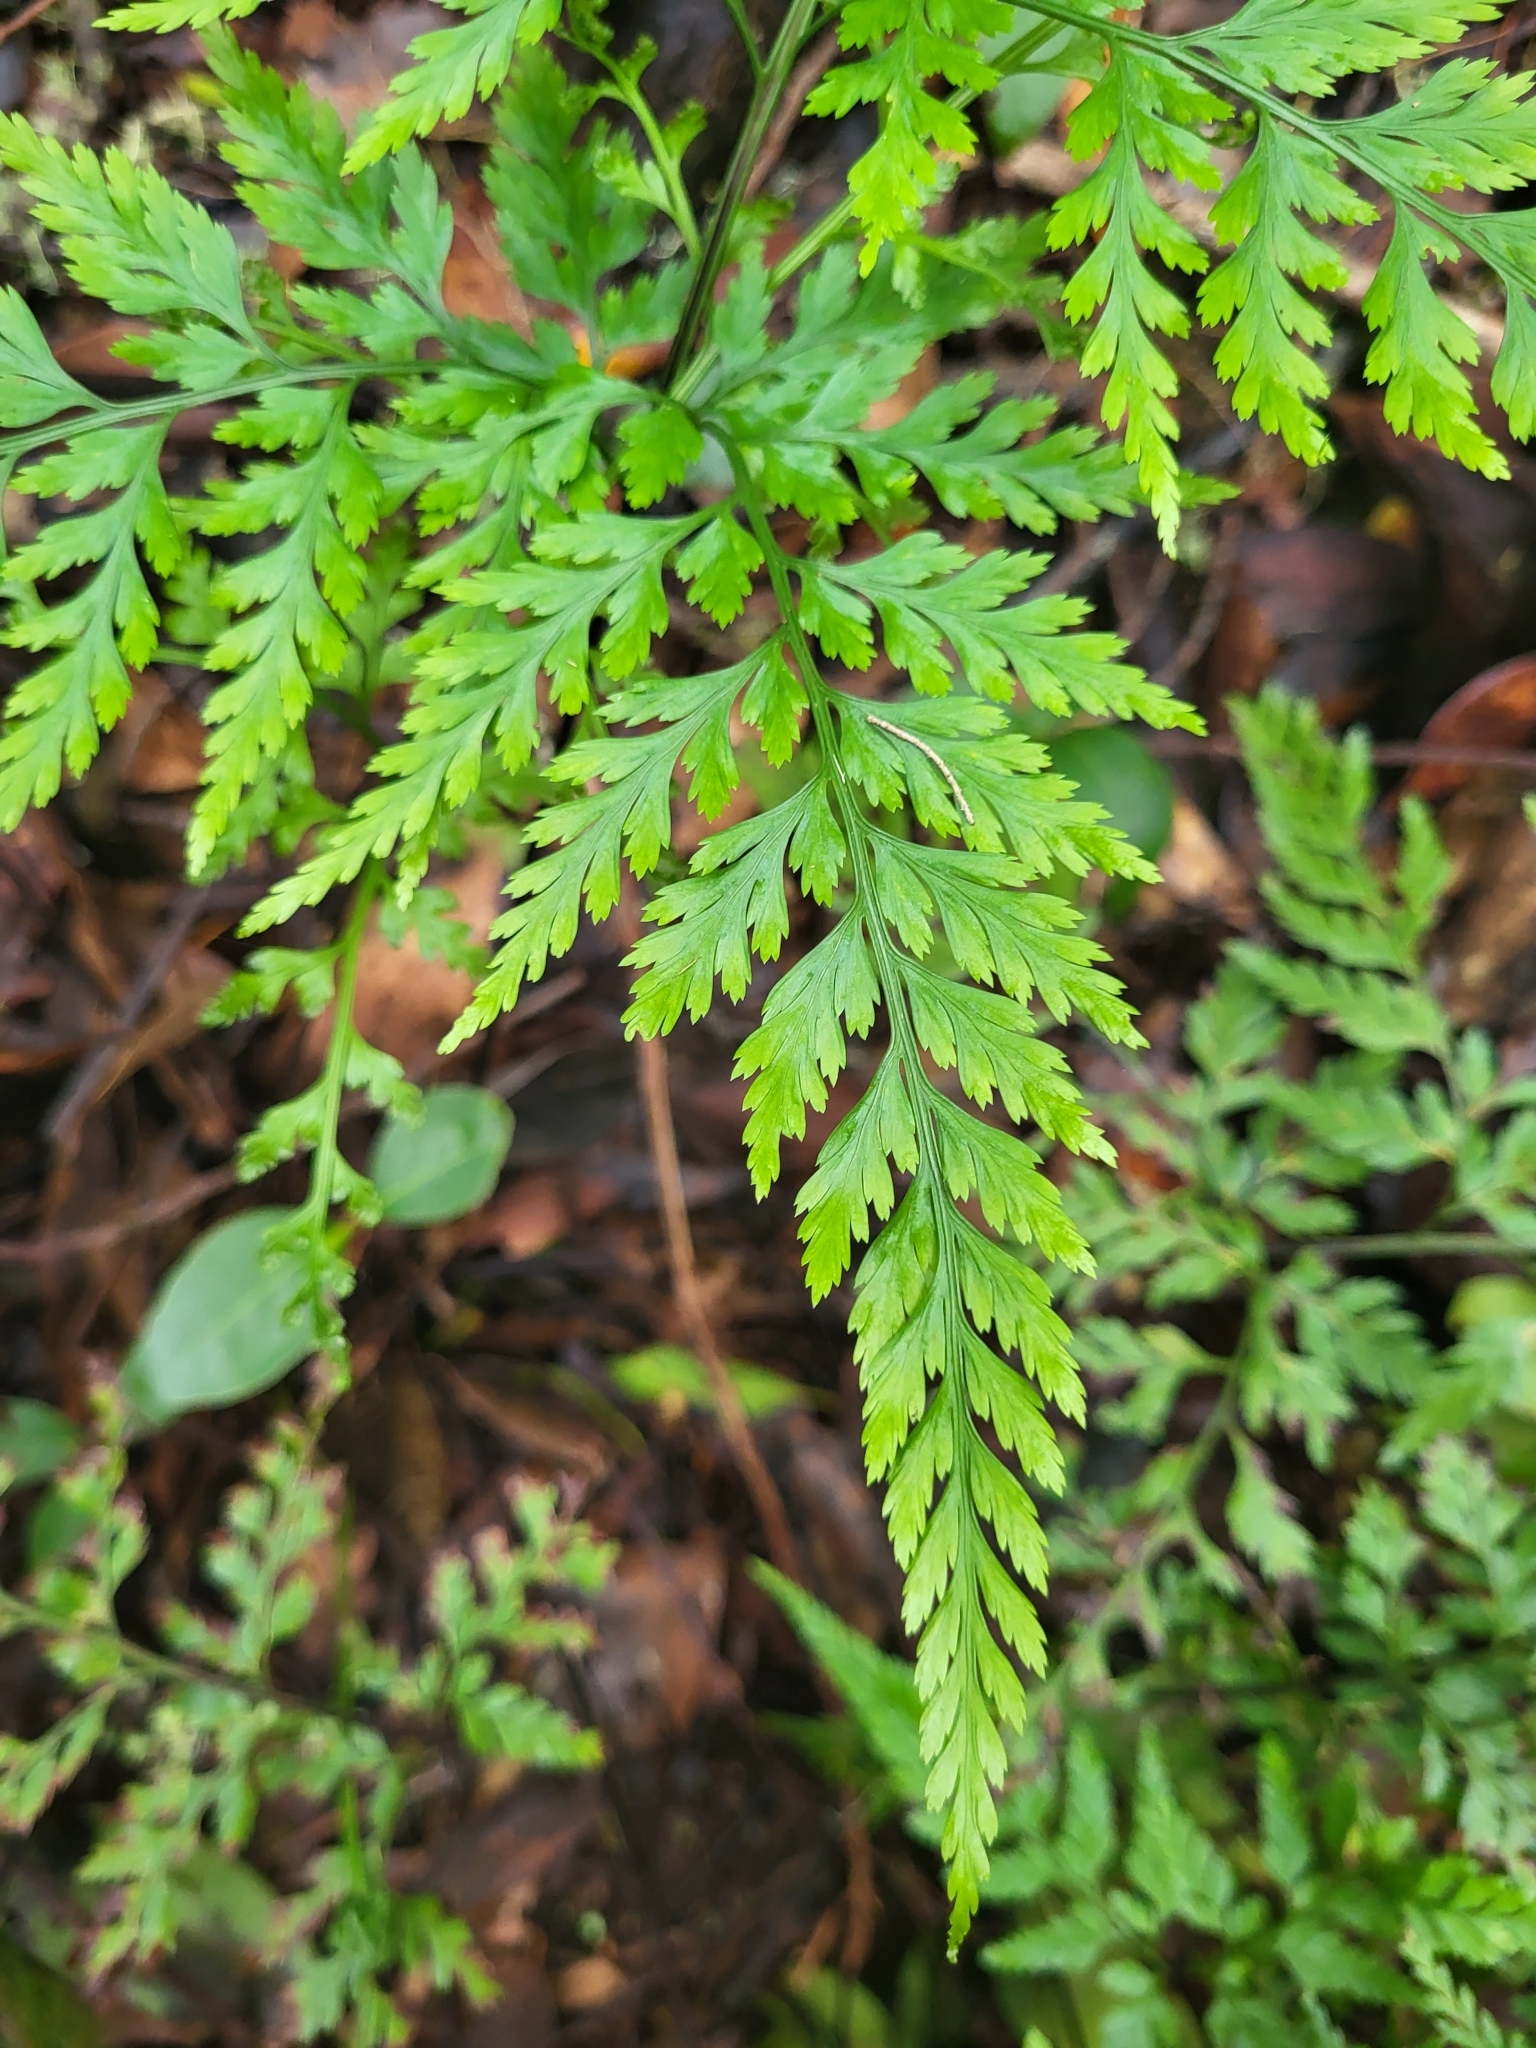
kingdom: Plantae
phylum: Tracheophyta
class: Polypodiopsida
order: Polypodiales
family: Aspleniaceae
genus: Asplenium
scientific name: Asplenium onopteris
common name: Irish spleenwort
